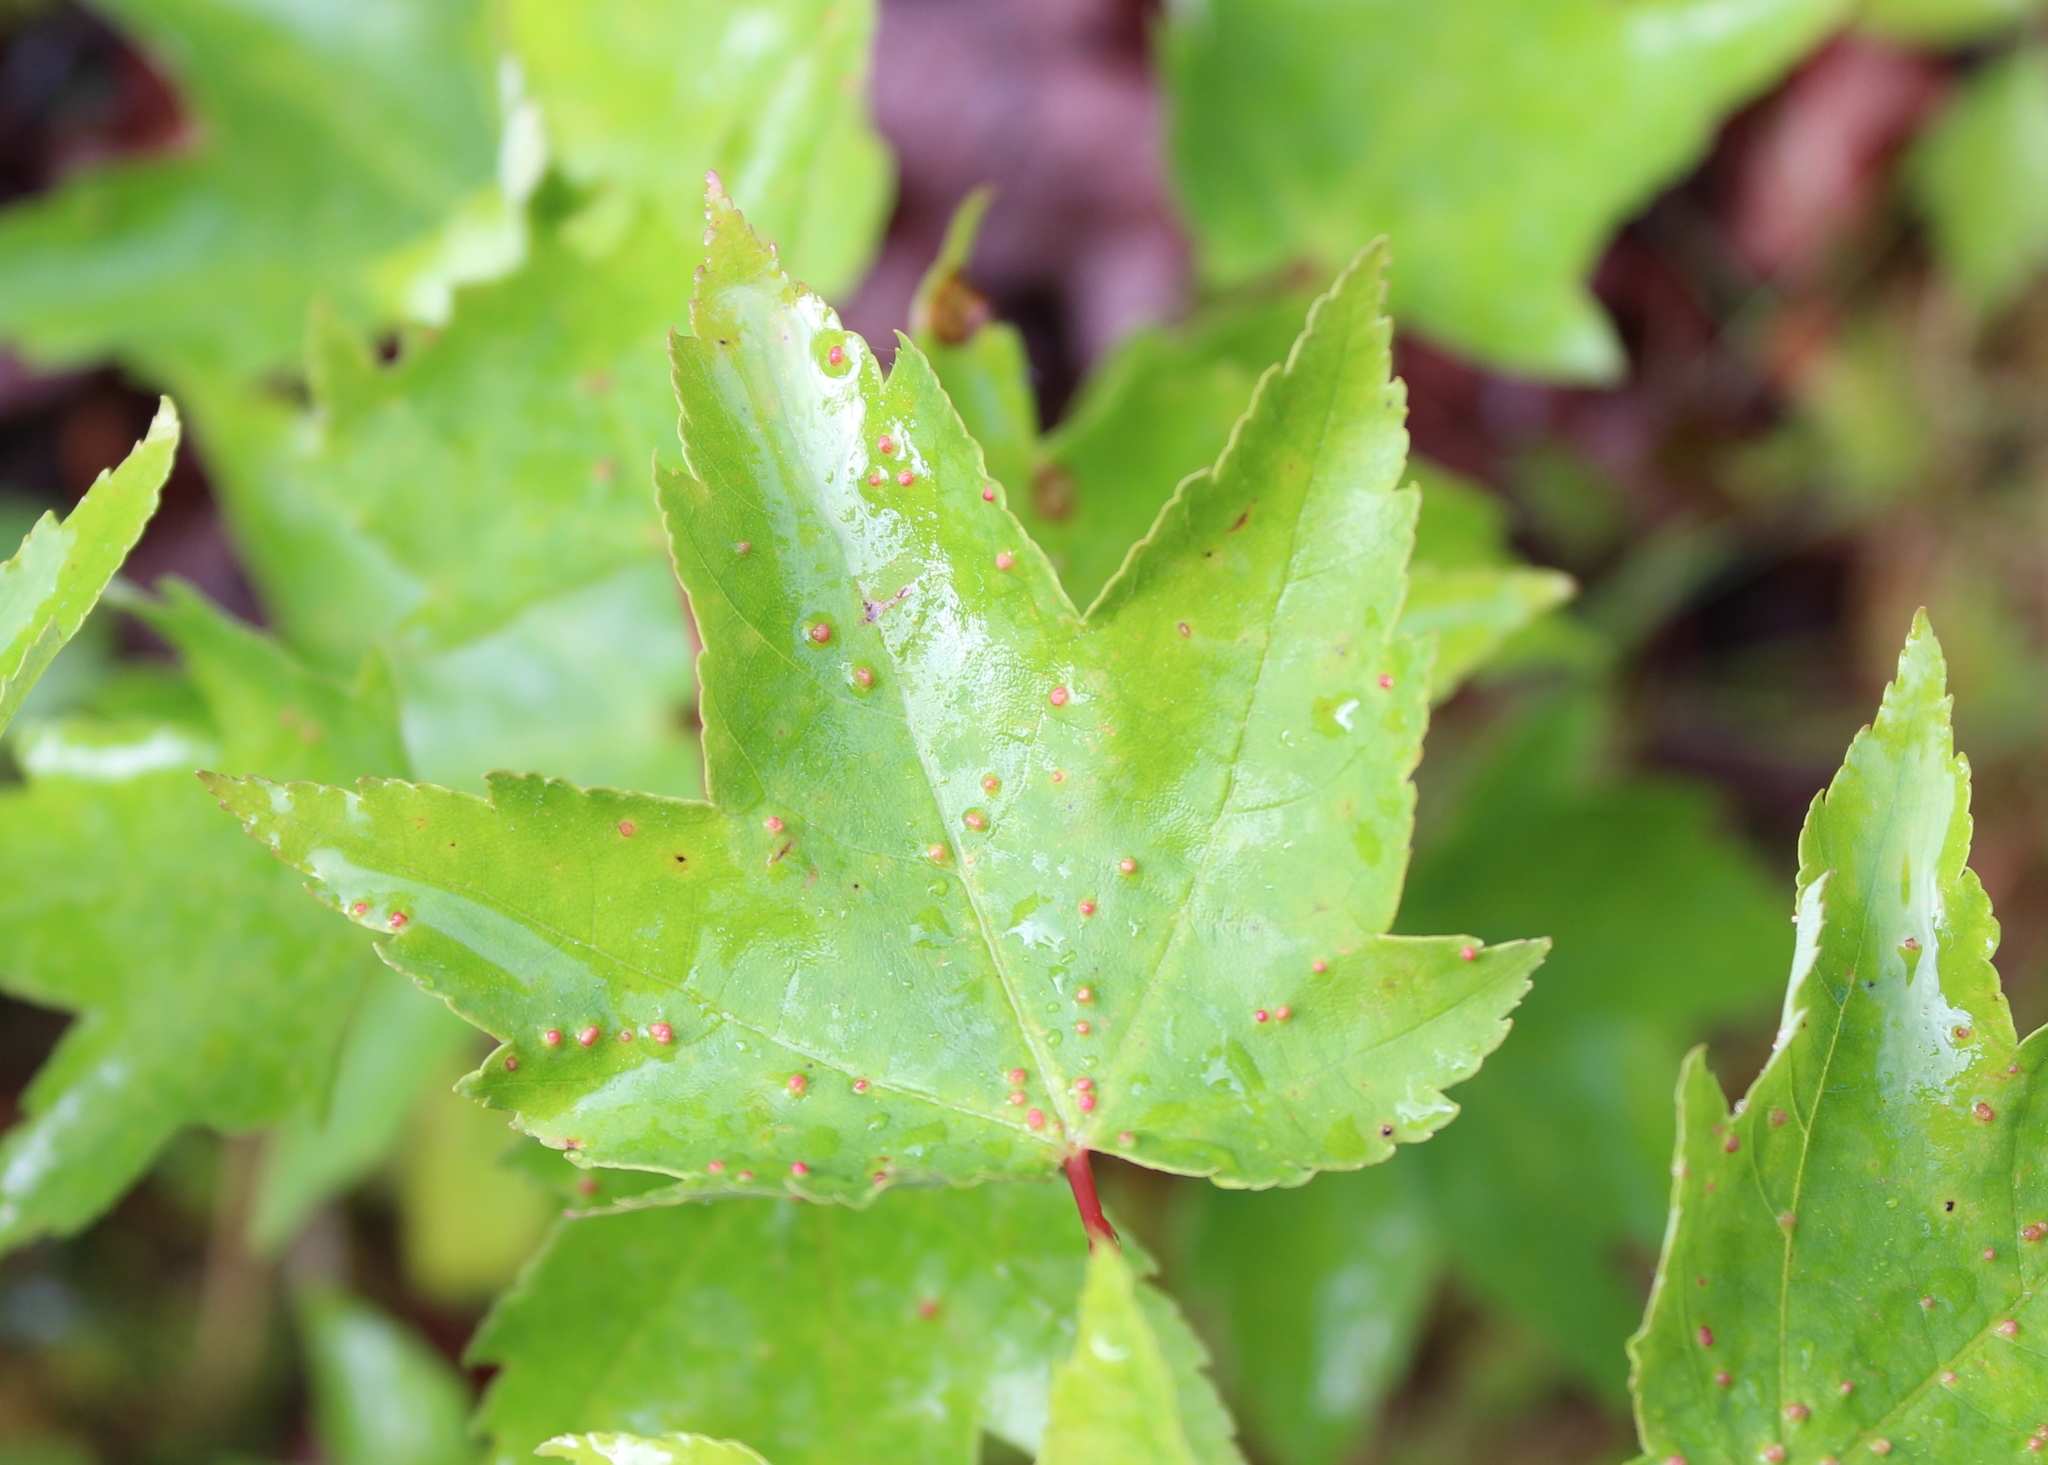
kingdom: Animalia
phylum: Arthropoda
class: Arachnida
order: Trombidiformes
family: Eriophyidae
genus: Vasates
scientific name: Vasates quadripedes
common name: Maple bladder gall mite
